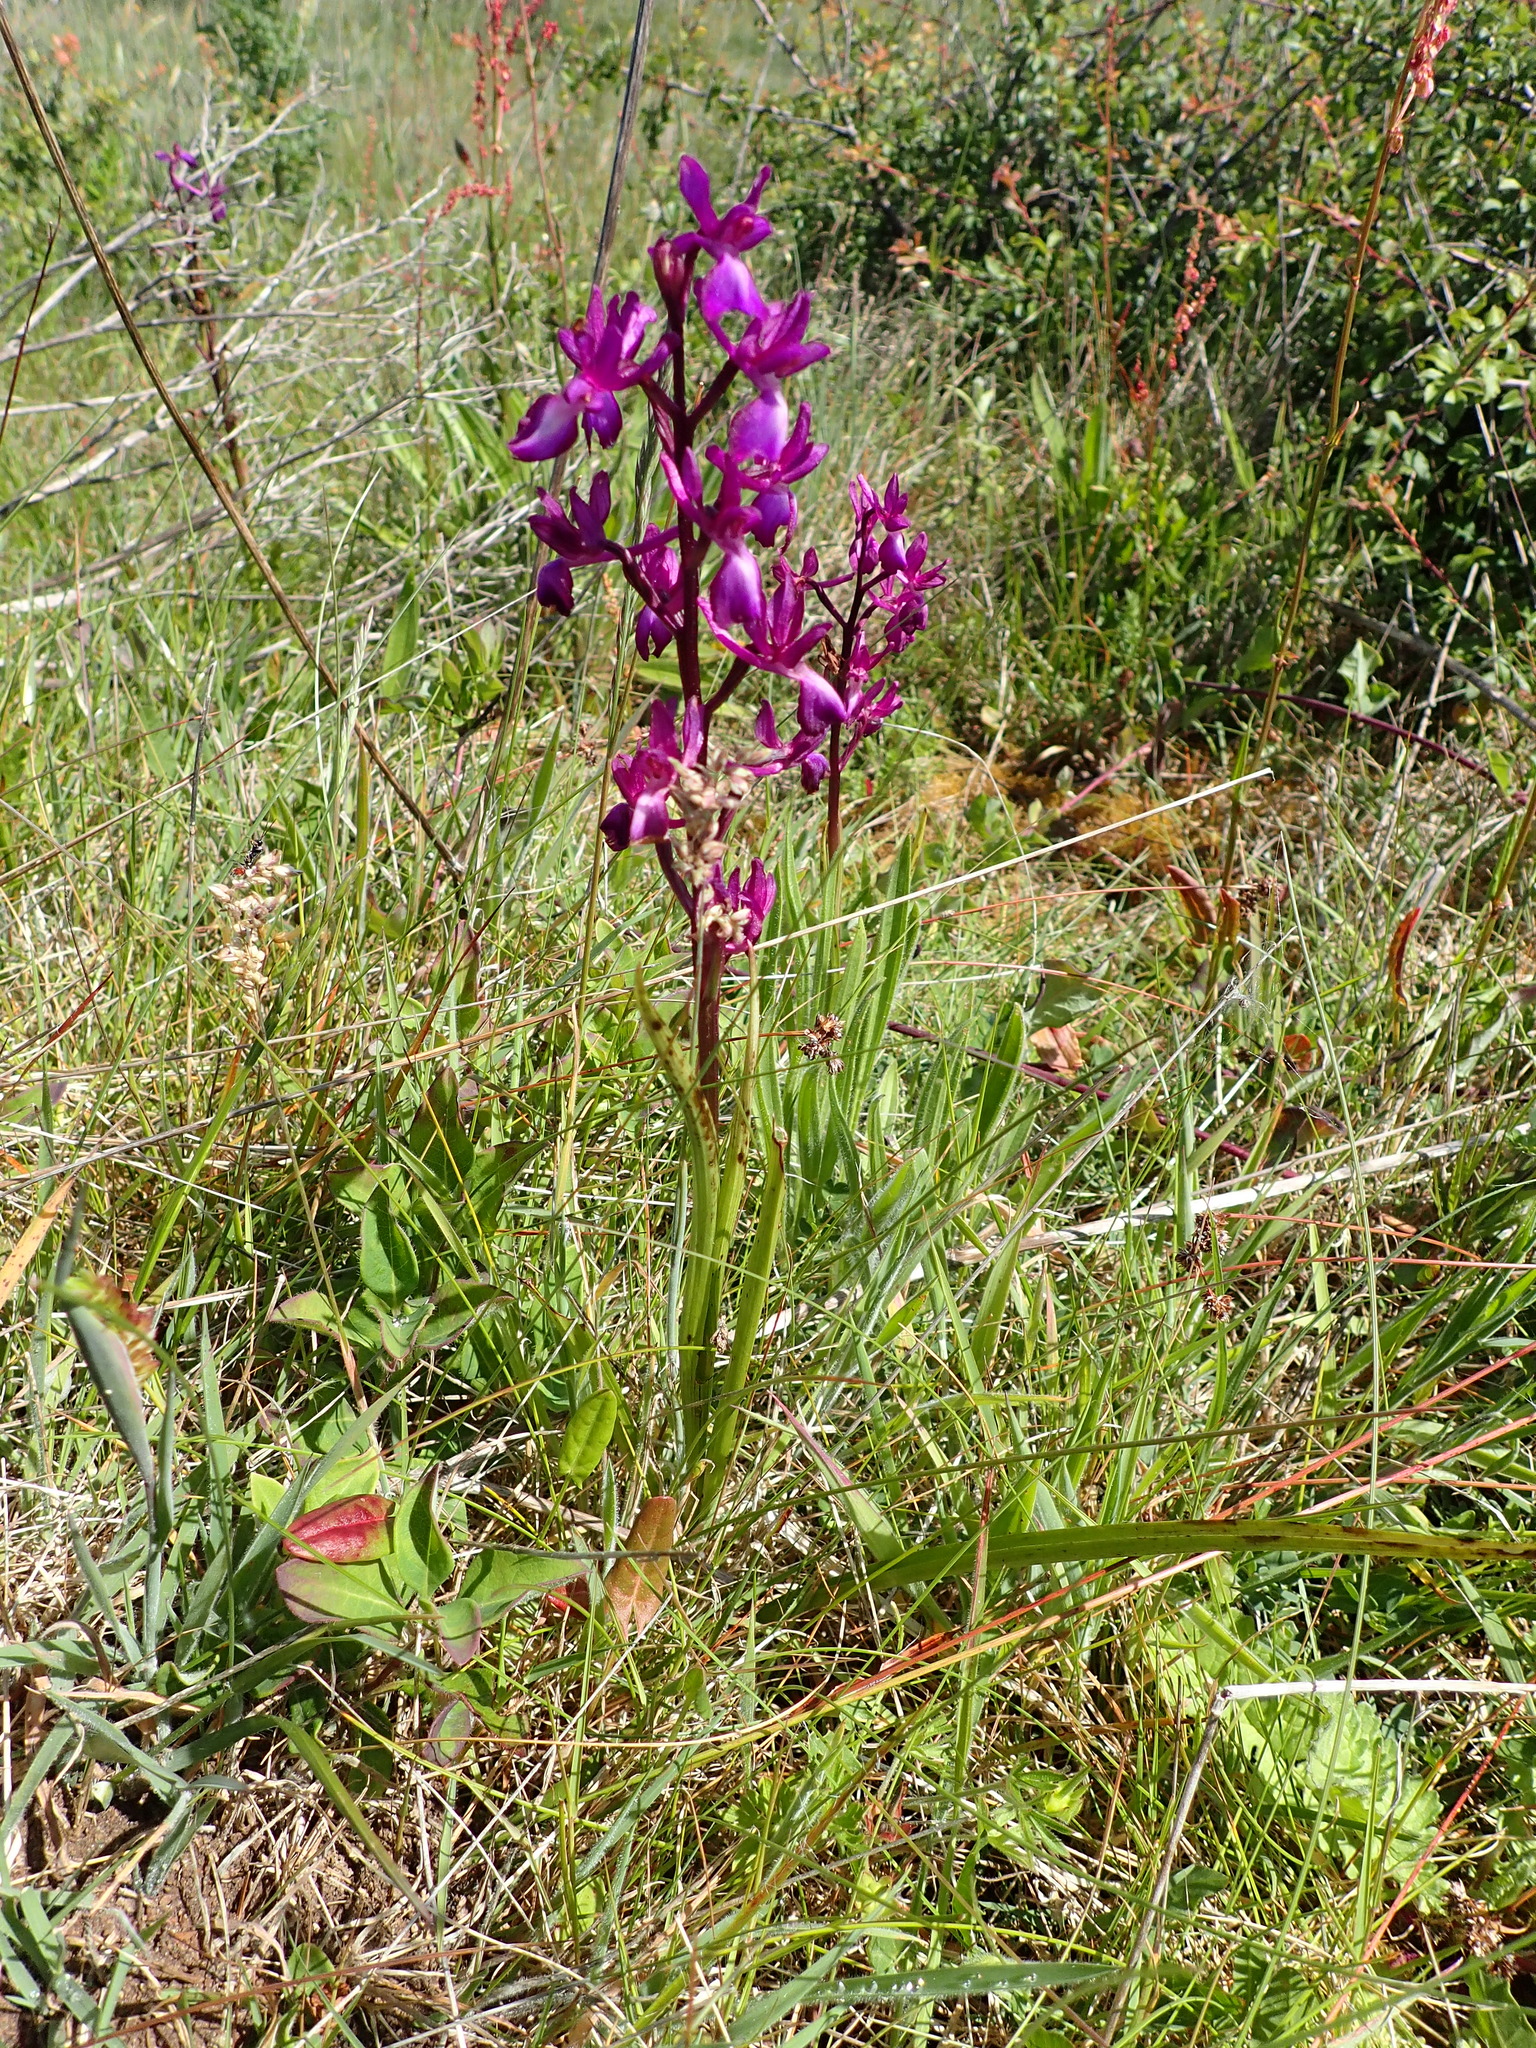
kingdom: Plantae
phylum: Tracheophyta
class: Liliopsida
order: Asparagales
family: Orchidaceae
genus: Anacamptis
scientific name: Anacamptis laxiflora
